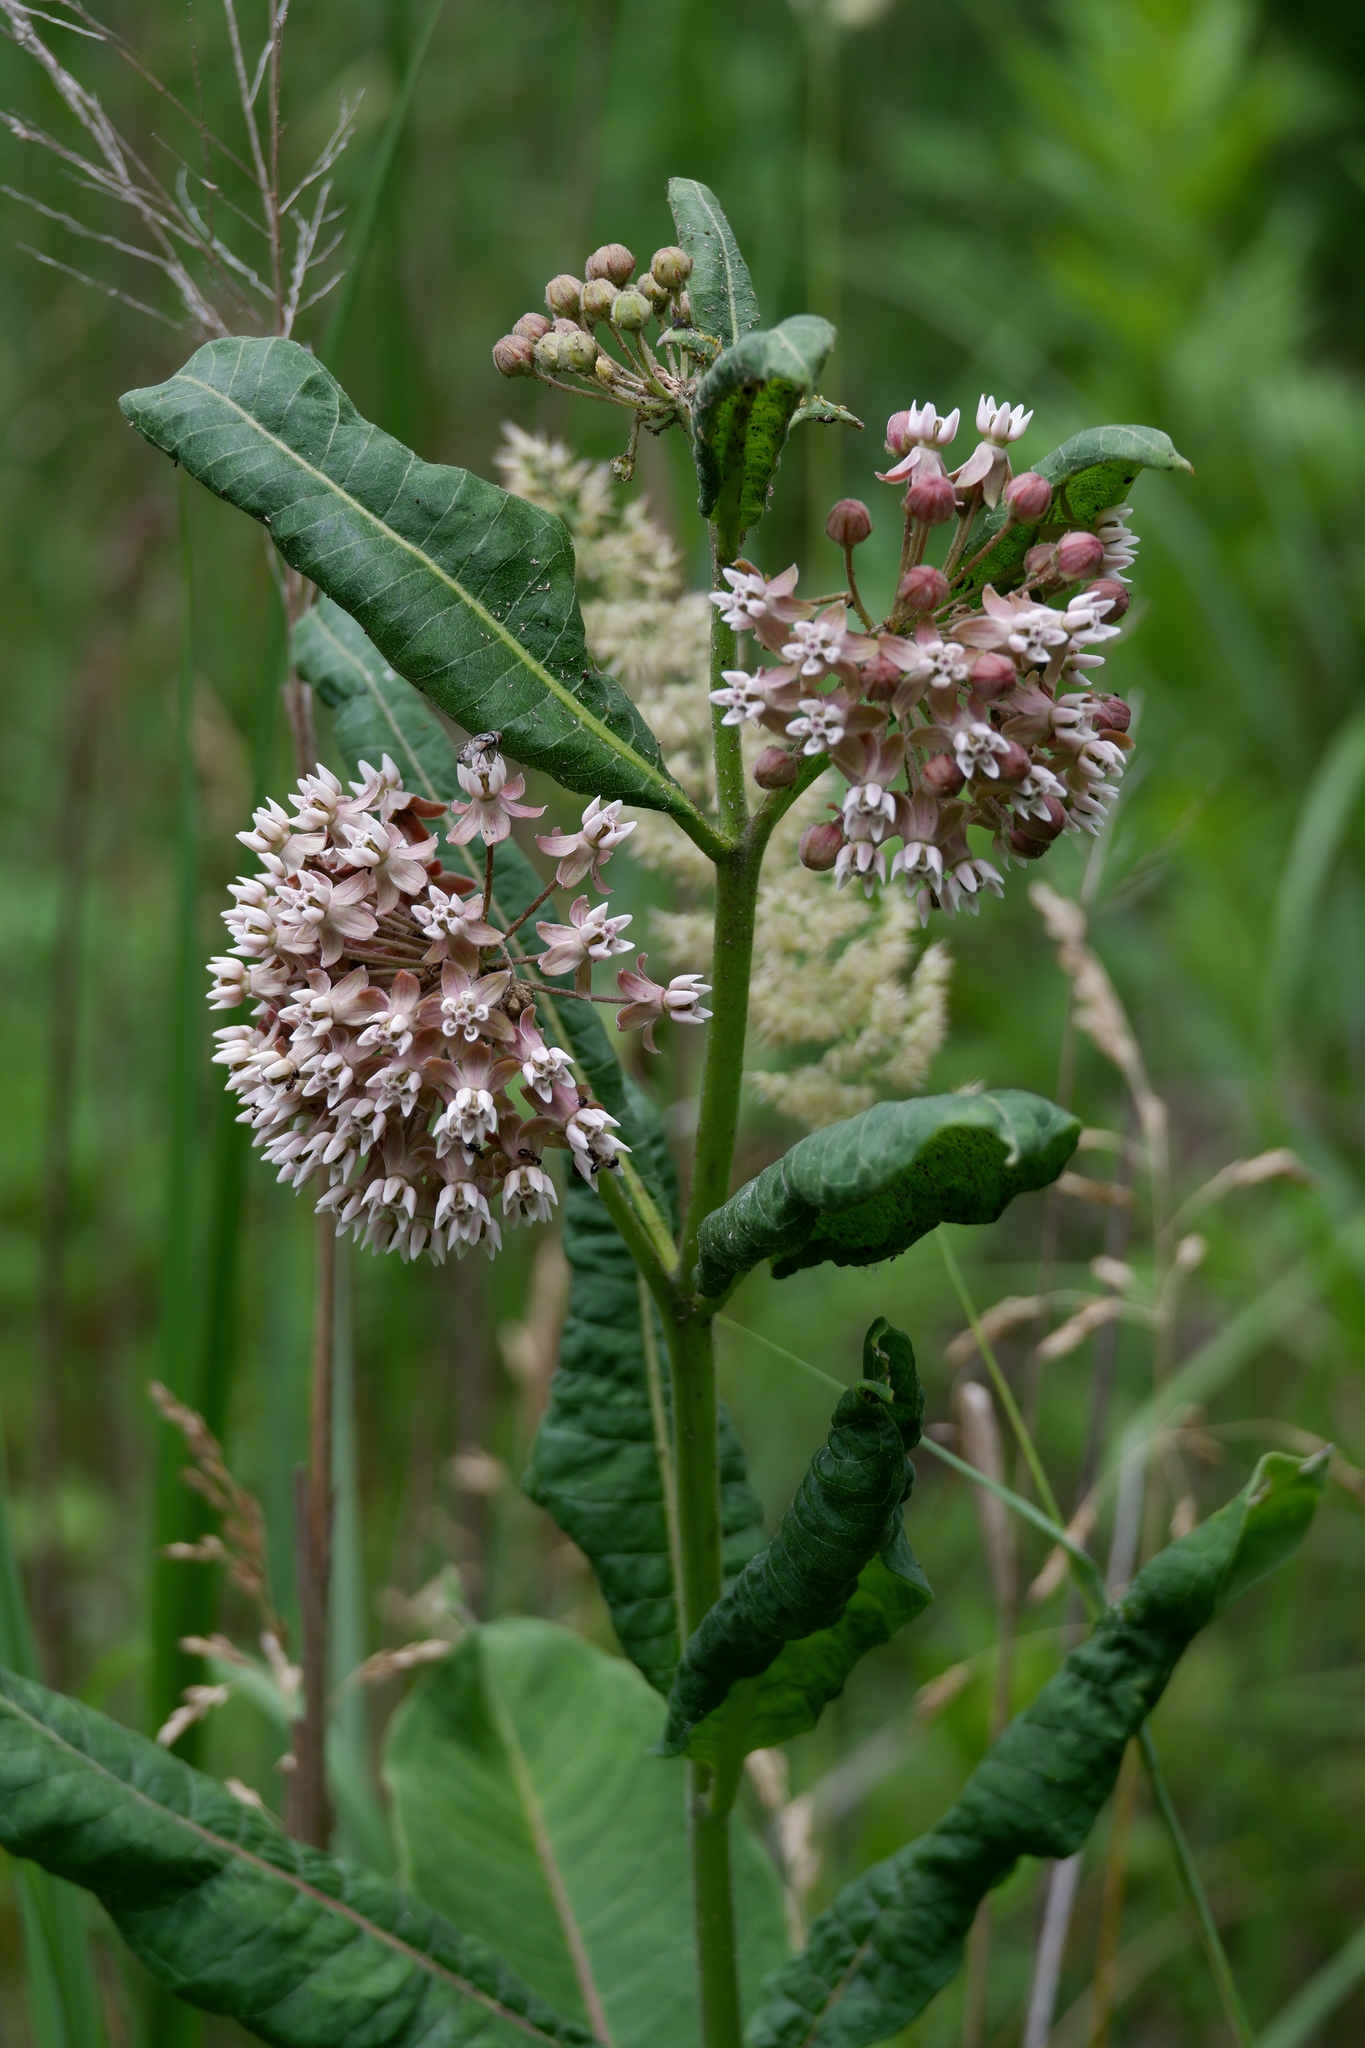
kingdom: Plantae
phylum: Tracheophyta
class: Magnoliopsida
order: Gentianales
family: Apocynaceae
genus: Asclepias
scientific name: Asclepias syriaca
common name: Common milkweed
